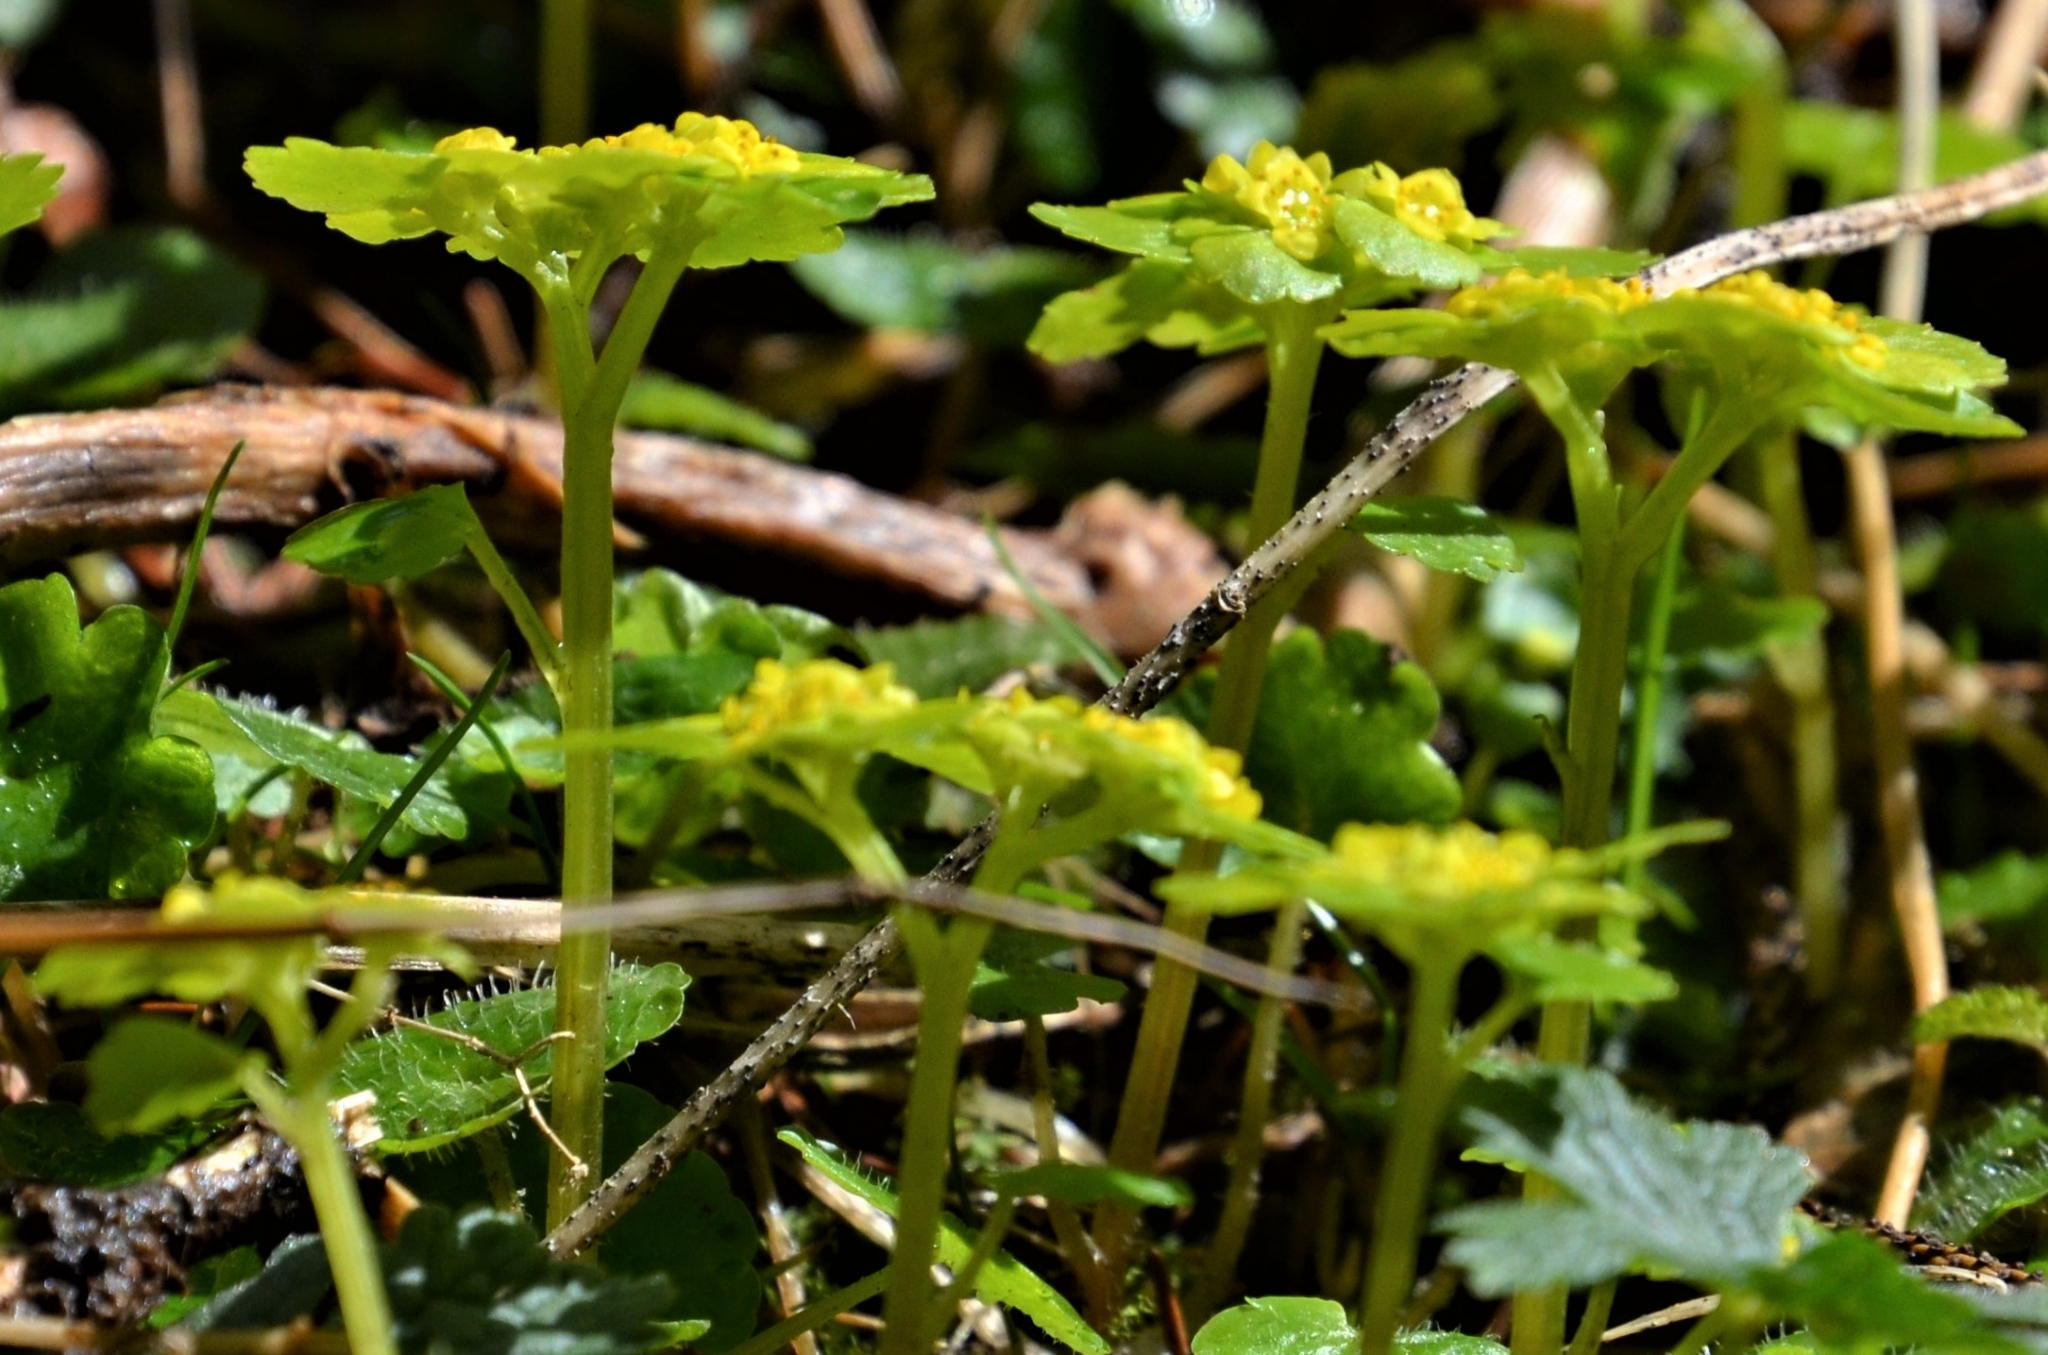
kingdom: Plantae
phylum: Tracheophyta
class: Magnoliopsida
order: Saxifragales
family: Saxifragaceae
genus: Chrysosplenium
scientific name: Chrysosplenium alternifolium
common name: Alternate-leaved golden-saxifrage
